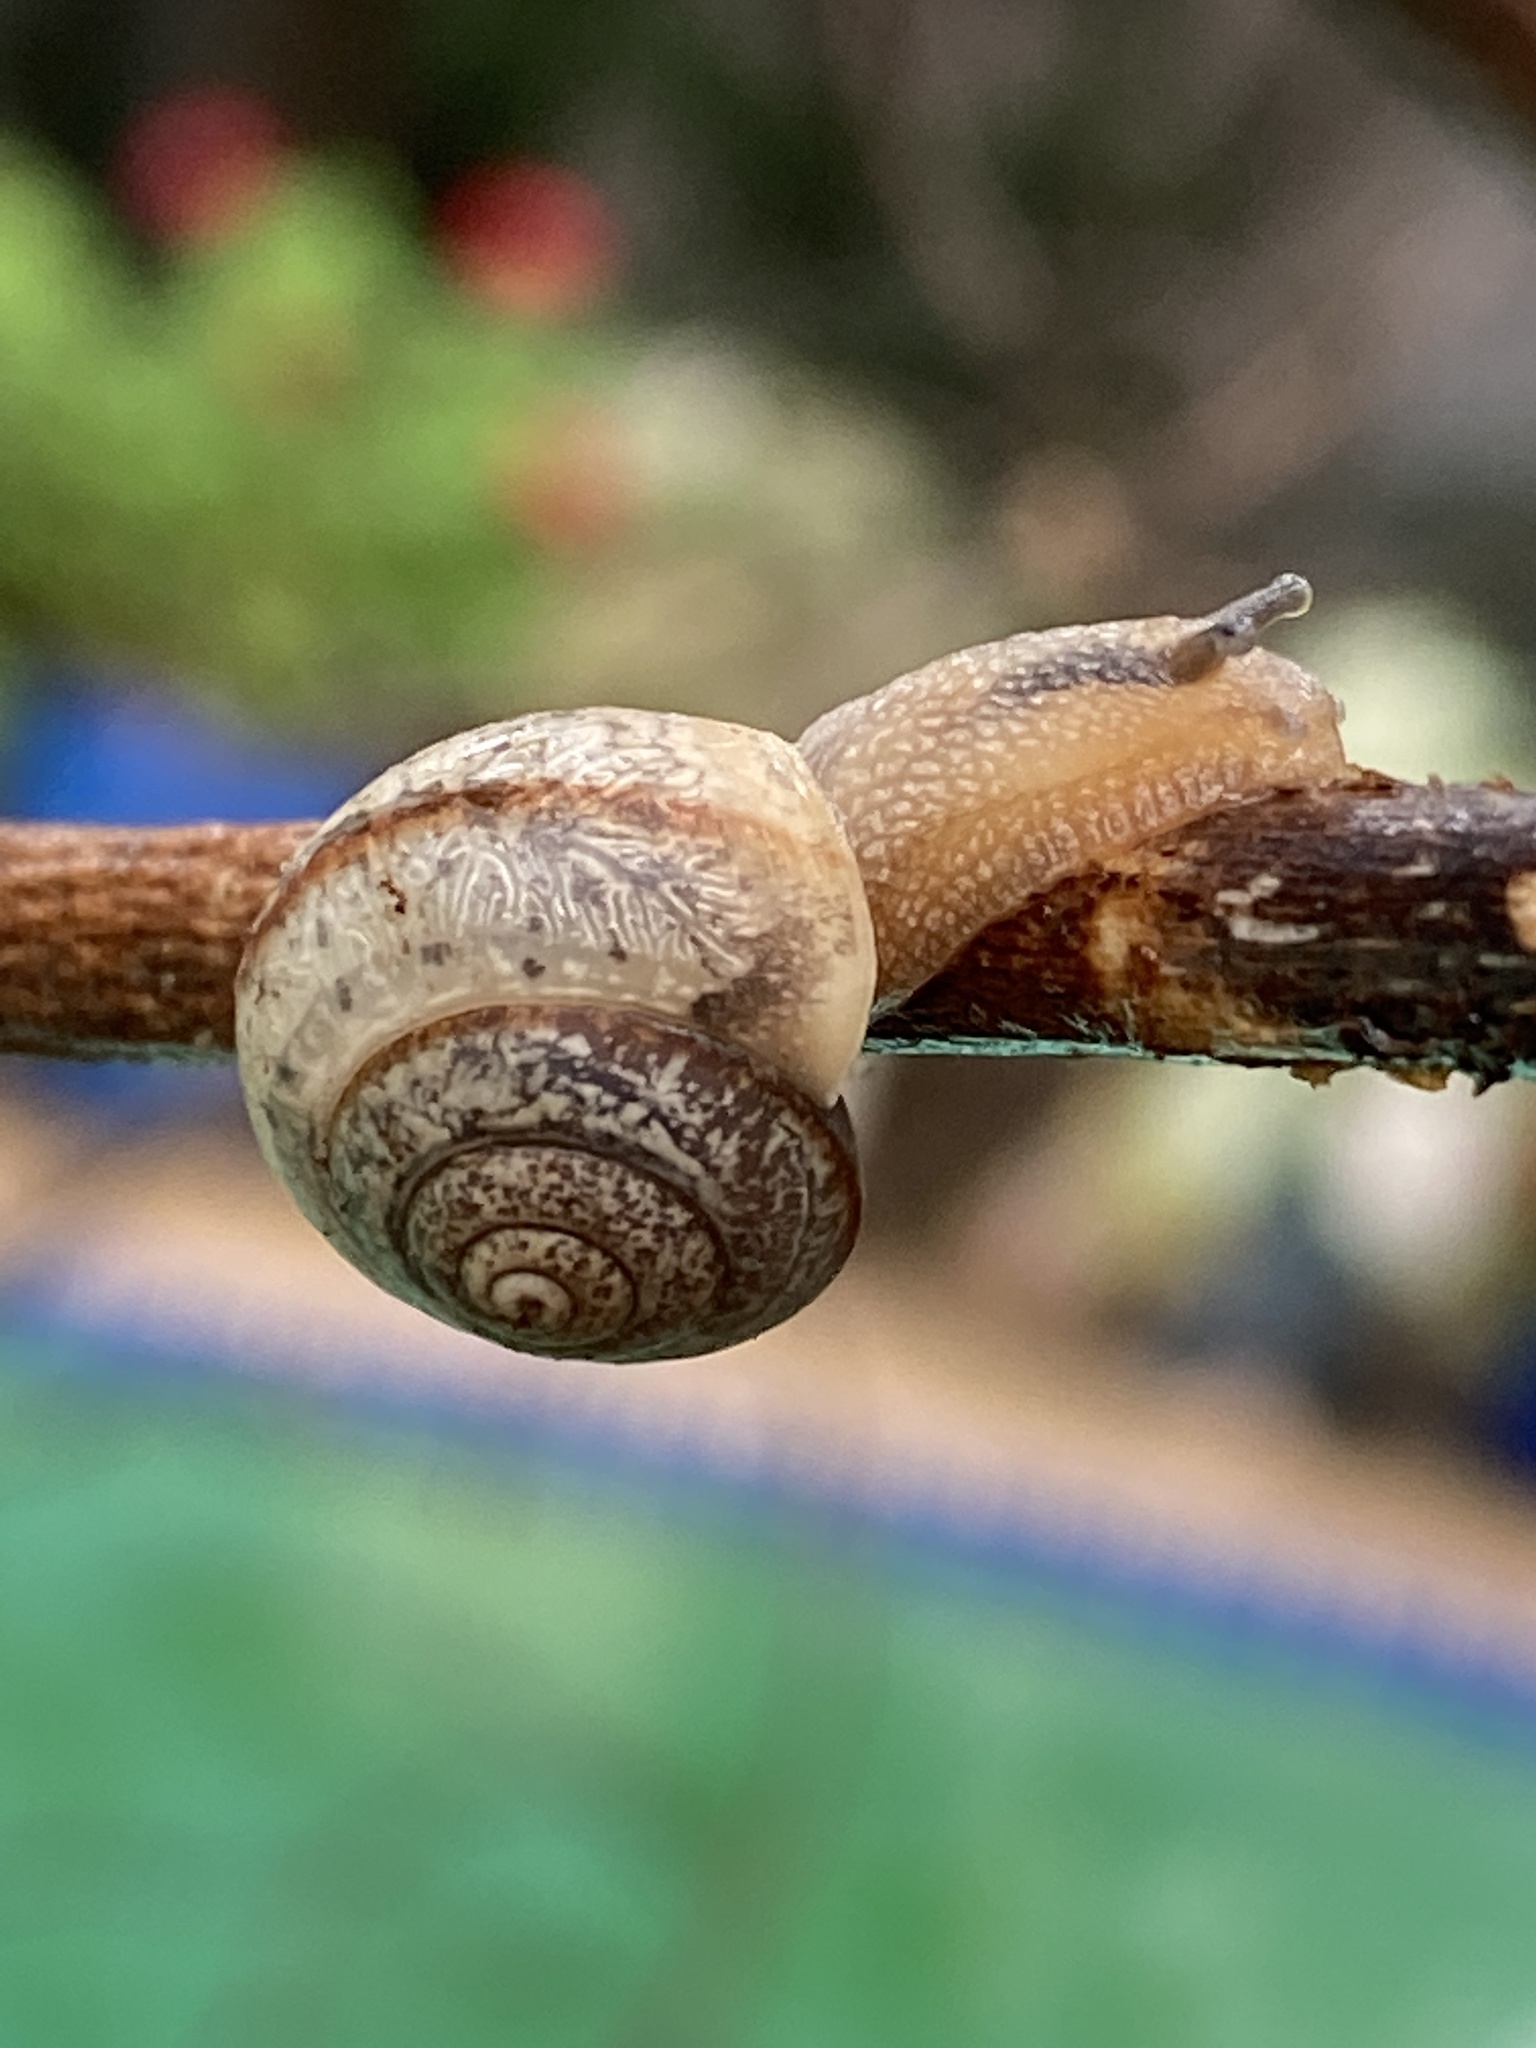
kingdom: Animalia
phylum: Mollusca
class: Gastropoda
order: Stylommatophora
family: Camaenidae
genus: Bradybaena
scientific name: Bradybaena similaris
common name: Asian trampsnail
